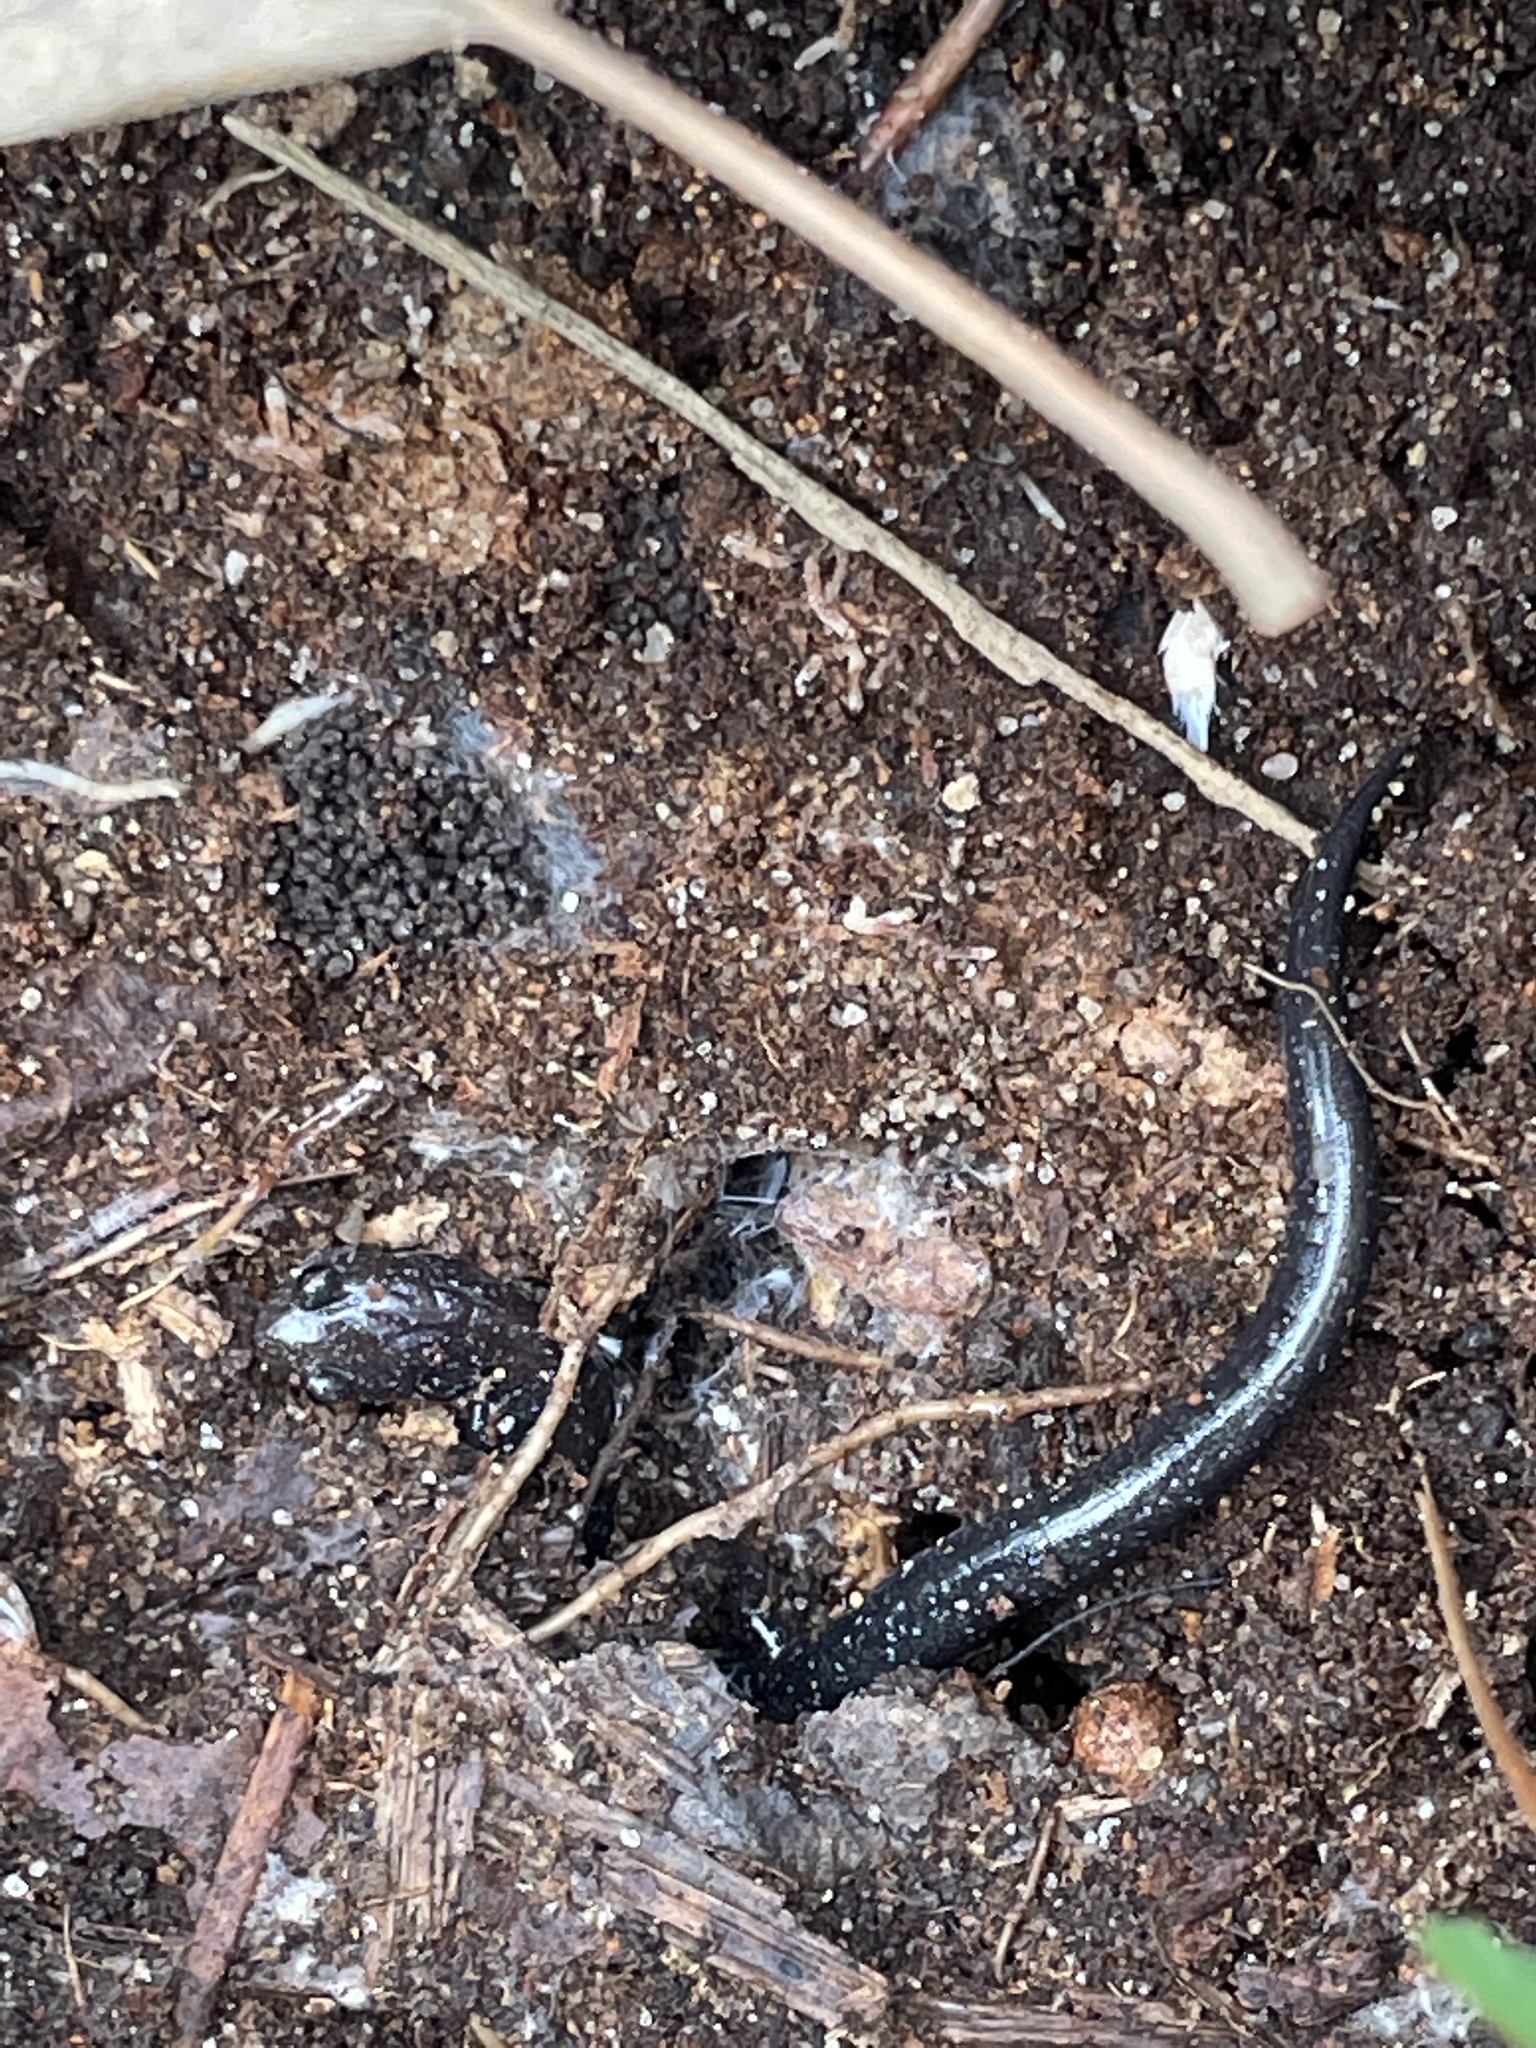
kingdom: Animalia
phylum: Chordata
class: Amphibia
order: Caudata
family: Plethodontidae
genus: Plethodon
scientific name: Plethodon cinereus
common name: Redback salamander
